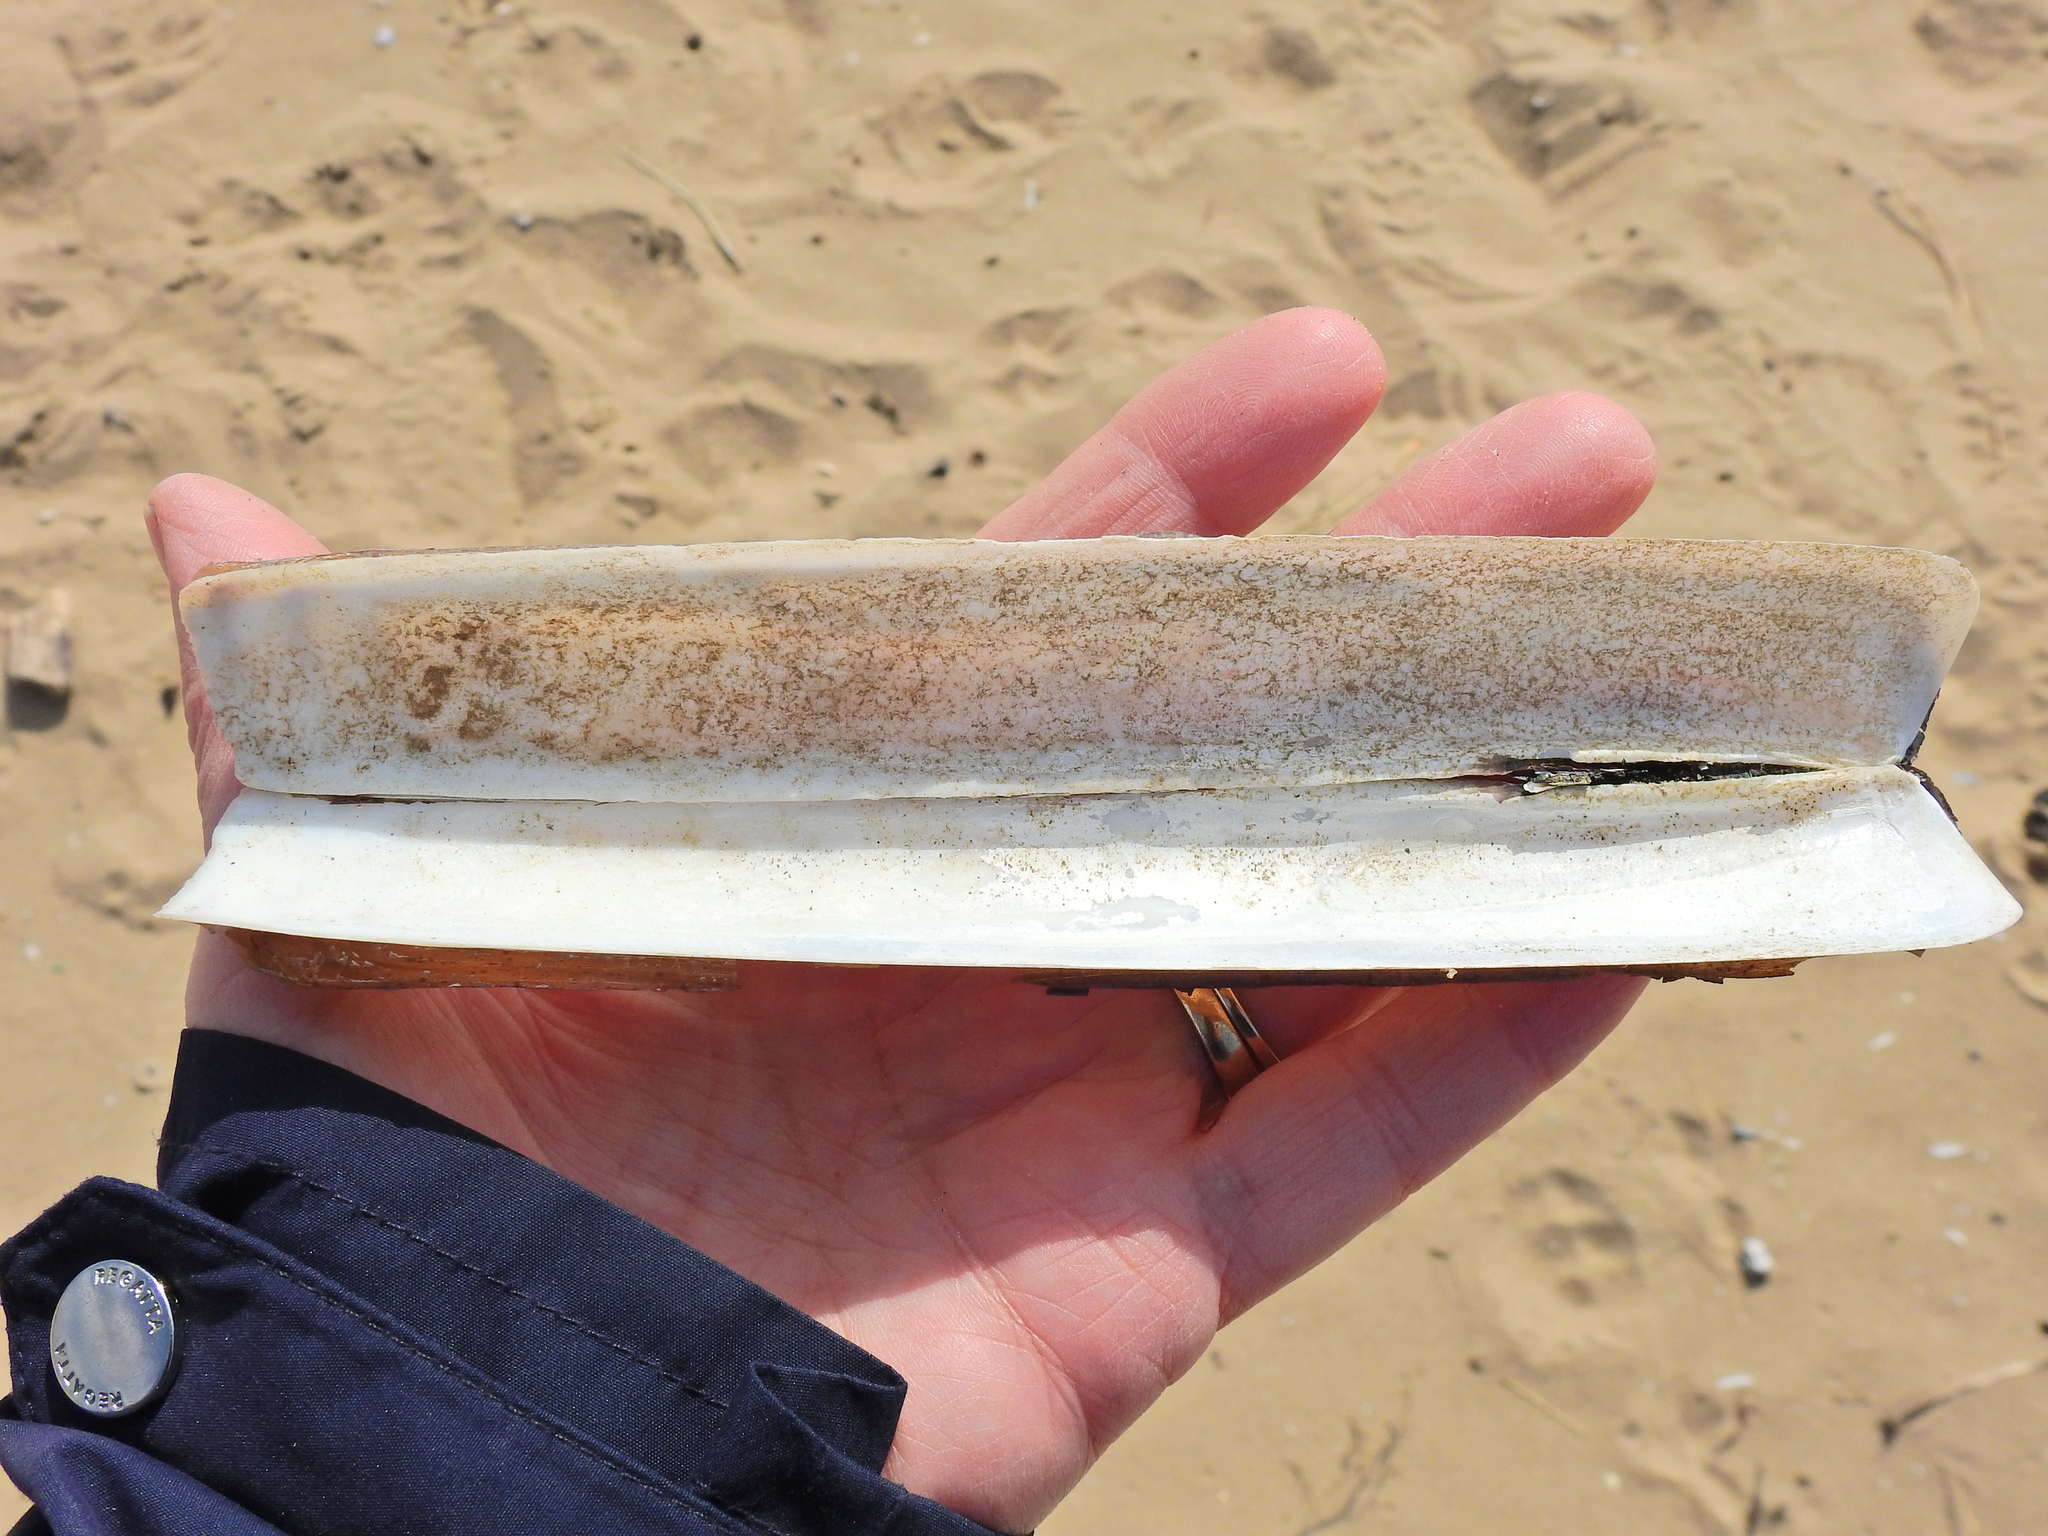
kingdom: Animalia
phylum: Mollusca
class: Bivalvia
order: Adapedonta
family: Pharidae
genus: Ensis
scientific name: Ensis siliqua
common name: Pod razor shell
